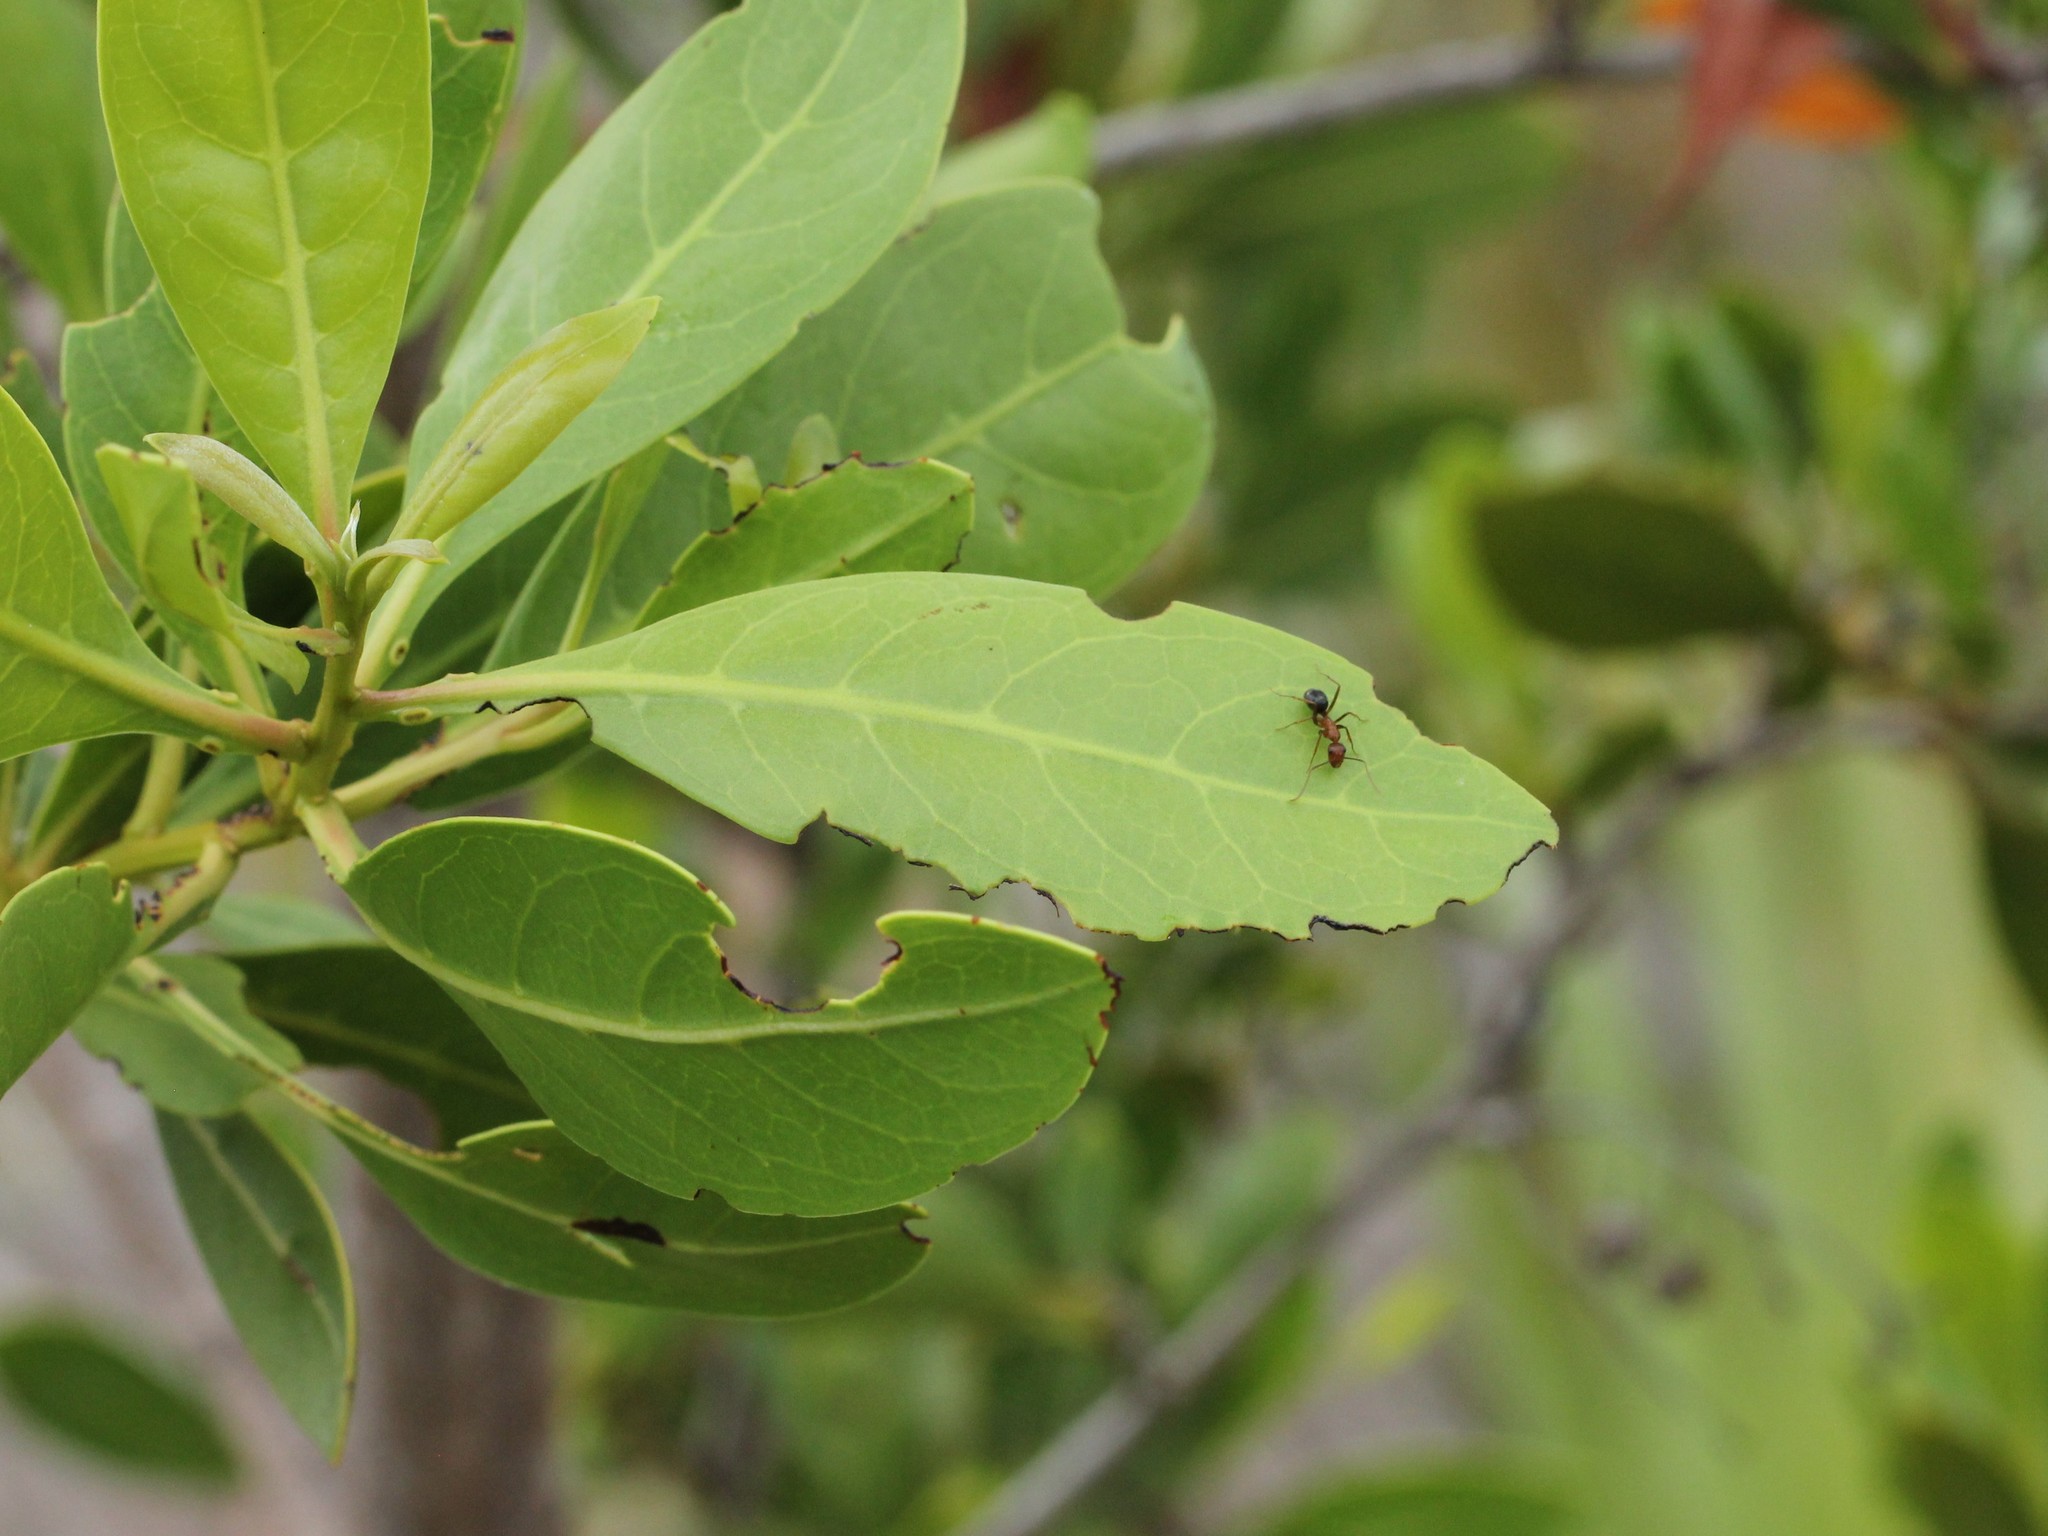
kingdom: Animalia
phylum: Arthropoda
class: Insecta
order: Hymenoptera
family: Formicidae
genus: Camponotus
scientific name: Camponotus floridanus
